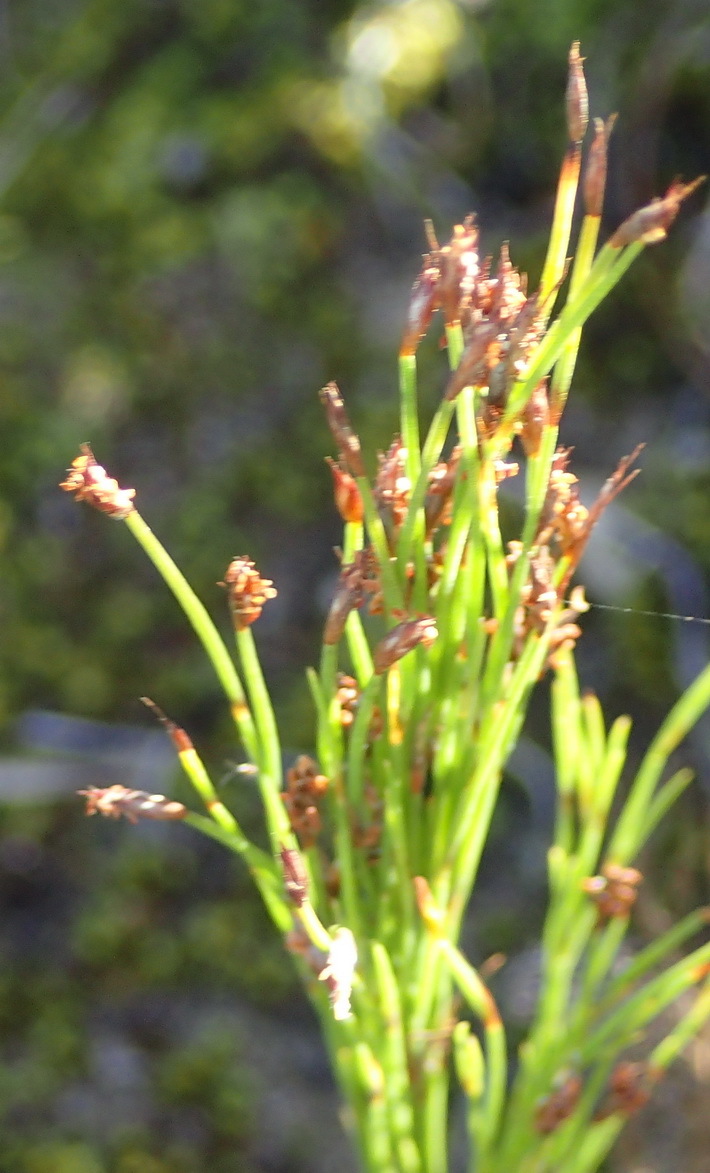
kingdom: Plantae
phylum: Tracheophyta
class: Liliopsida
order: Poales
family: Restionaceae
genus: Restio
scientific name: Restio leptoclados
